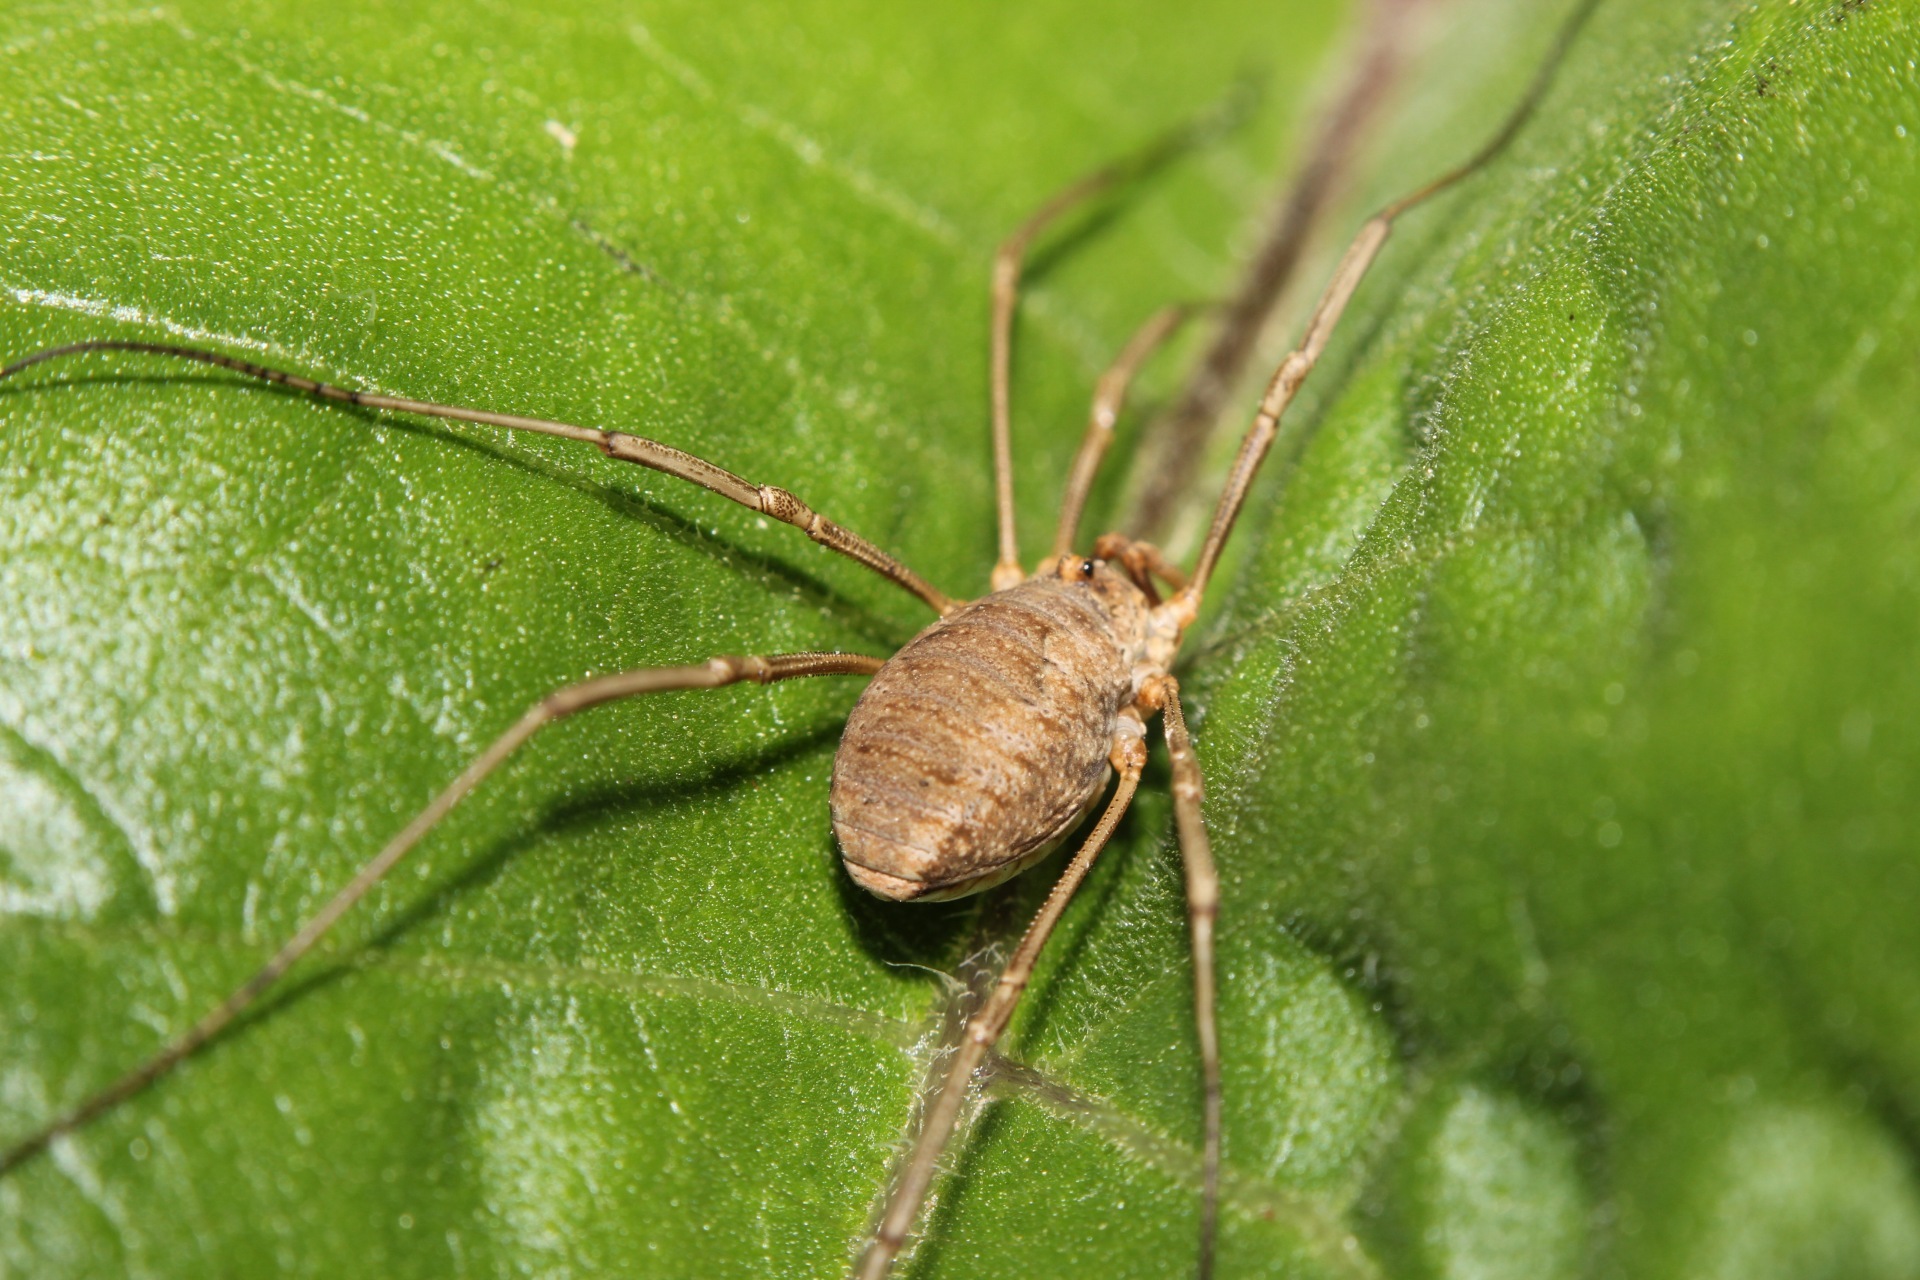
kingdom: Animalia
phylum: Arthropoda
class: Arachnida
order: Opiliones
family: Phalangiidae
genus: Phalangium
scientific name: Phalangium opilio
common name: Daddy longleg
